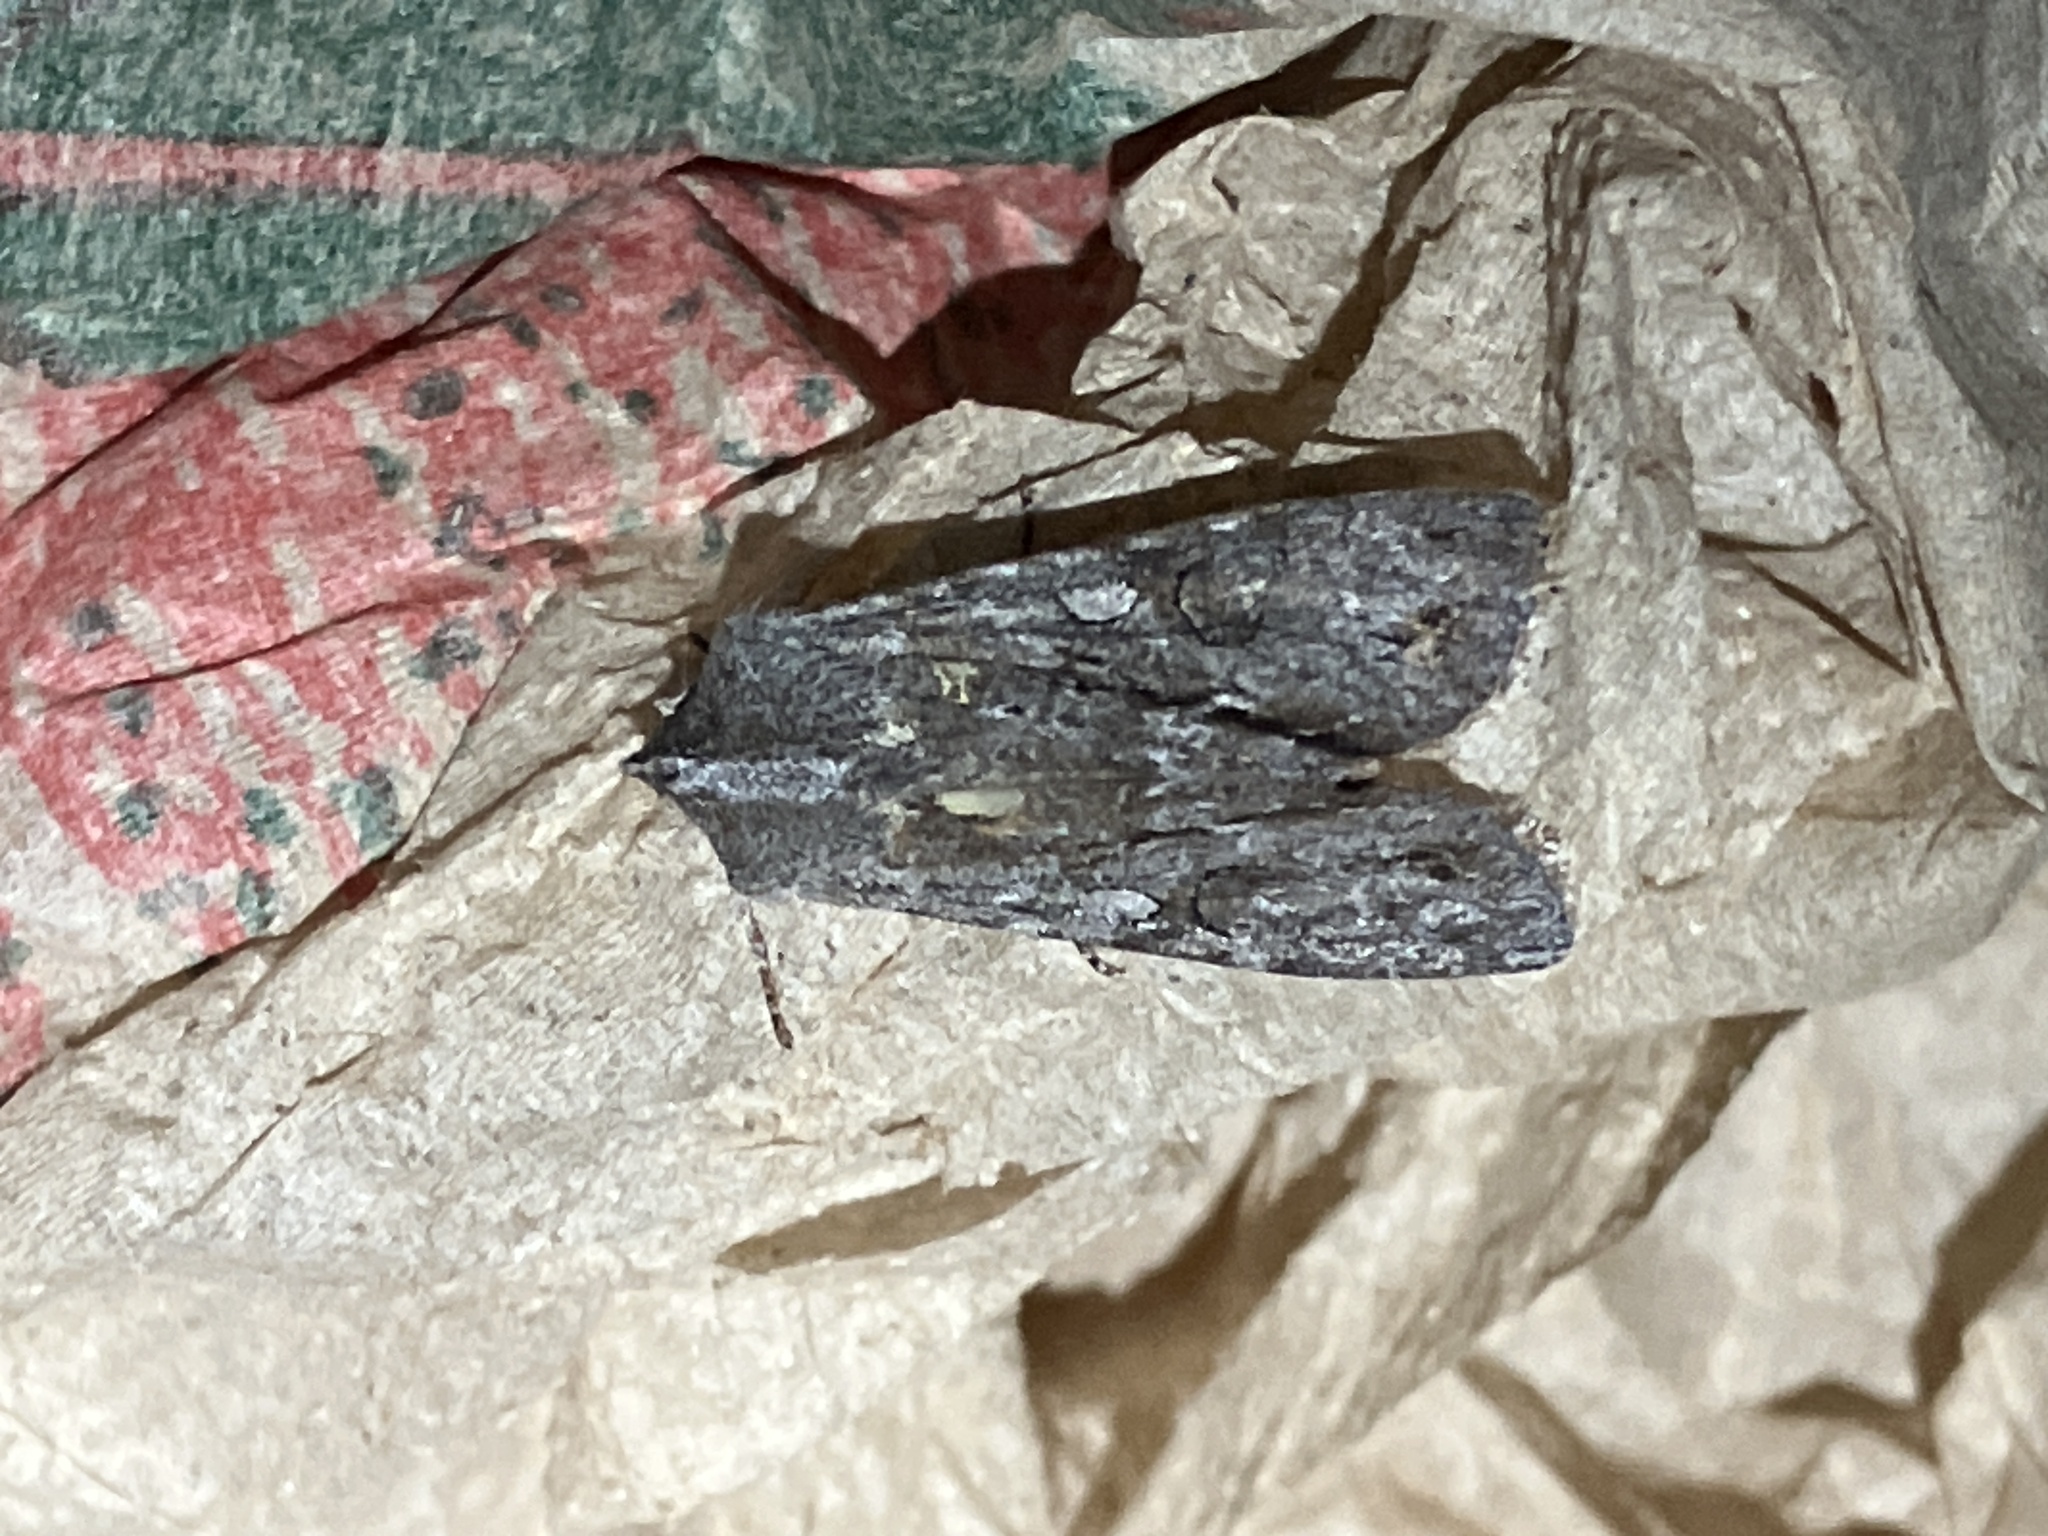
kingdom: Animalia
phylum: Arthropoda
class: Insecta
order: Lepidoptera
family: Noctuidae
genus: Ichneutica
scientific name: Ichneutica
